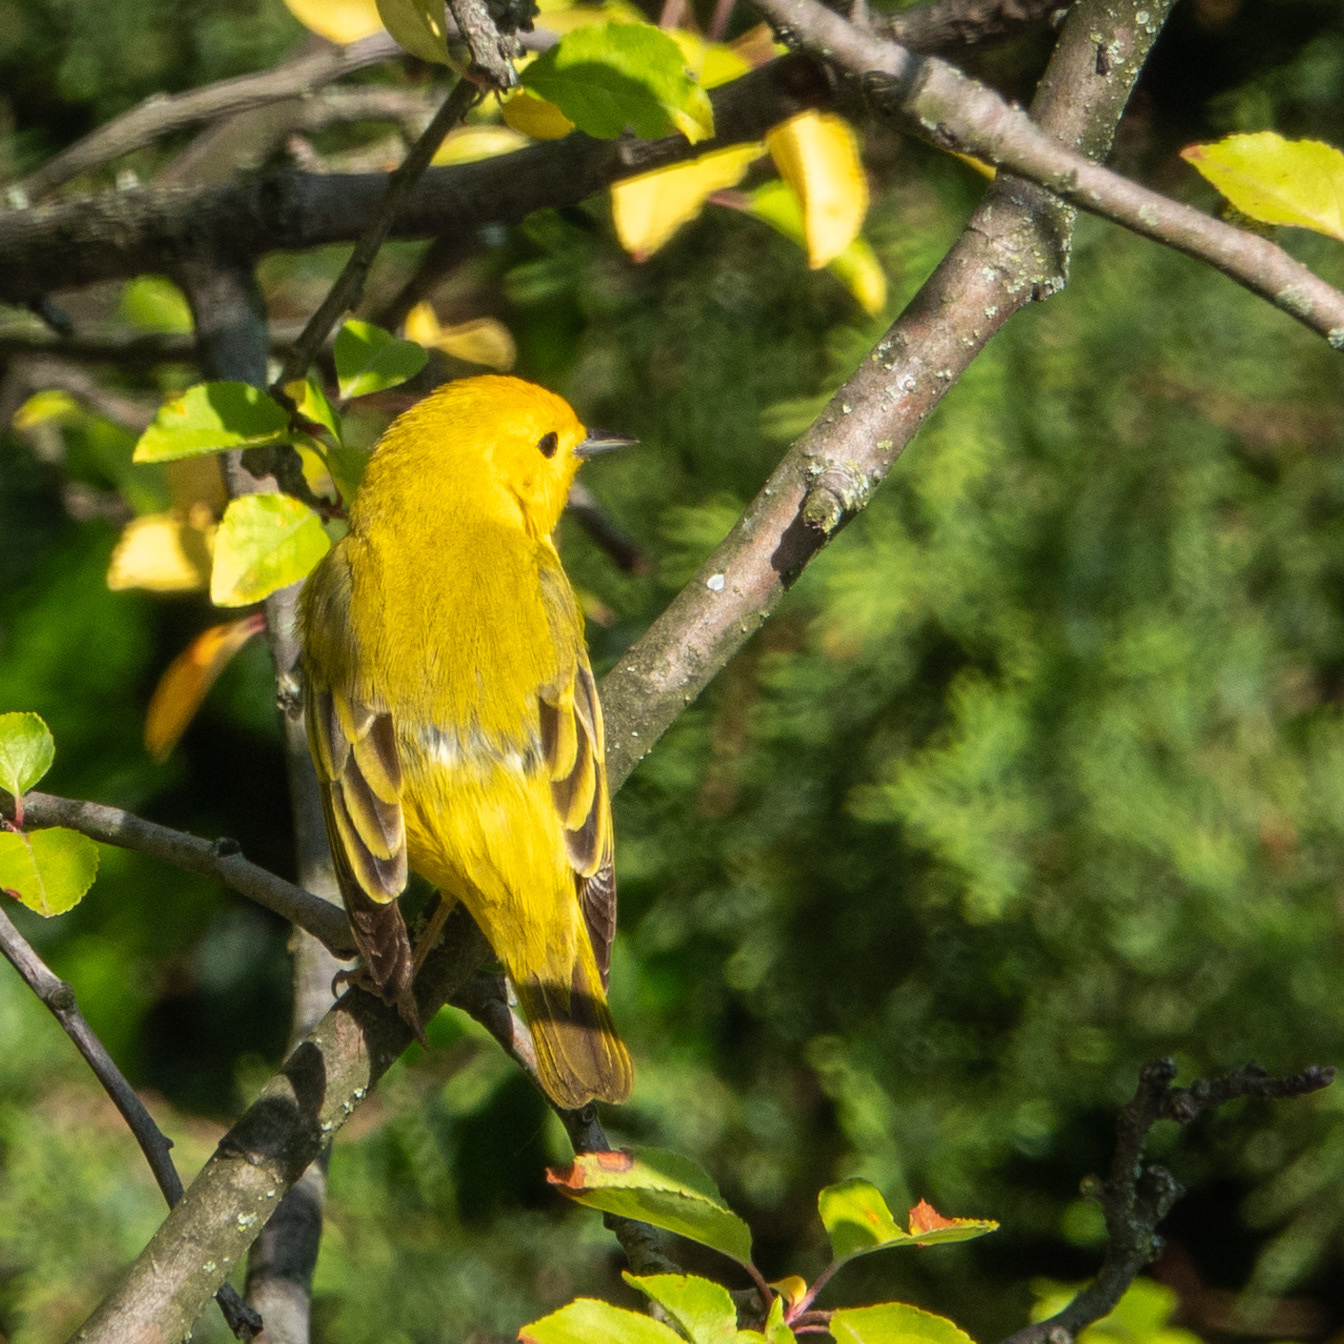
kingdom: Animalia
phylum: Chordata
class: Aves
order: Passeriformes
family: Parulidae
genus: Setophaga
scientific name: Setophaga petechia
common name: Yellow warbler
